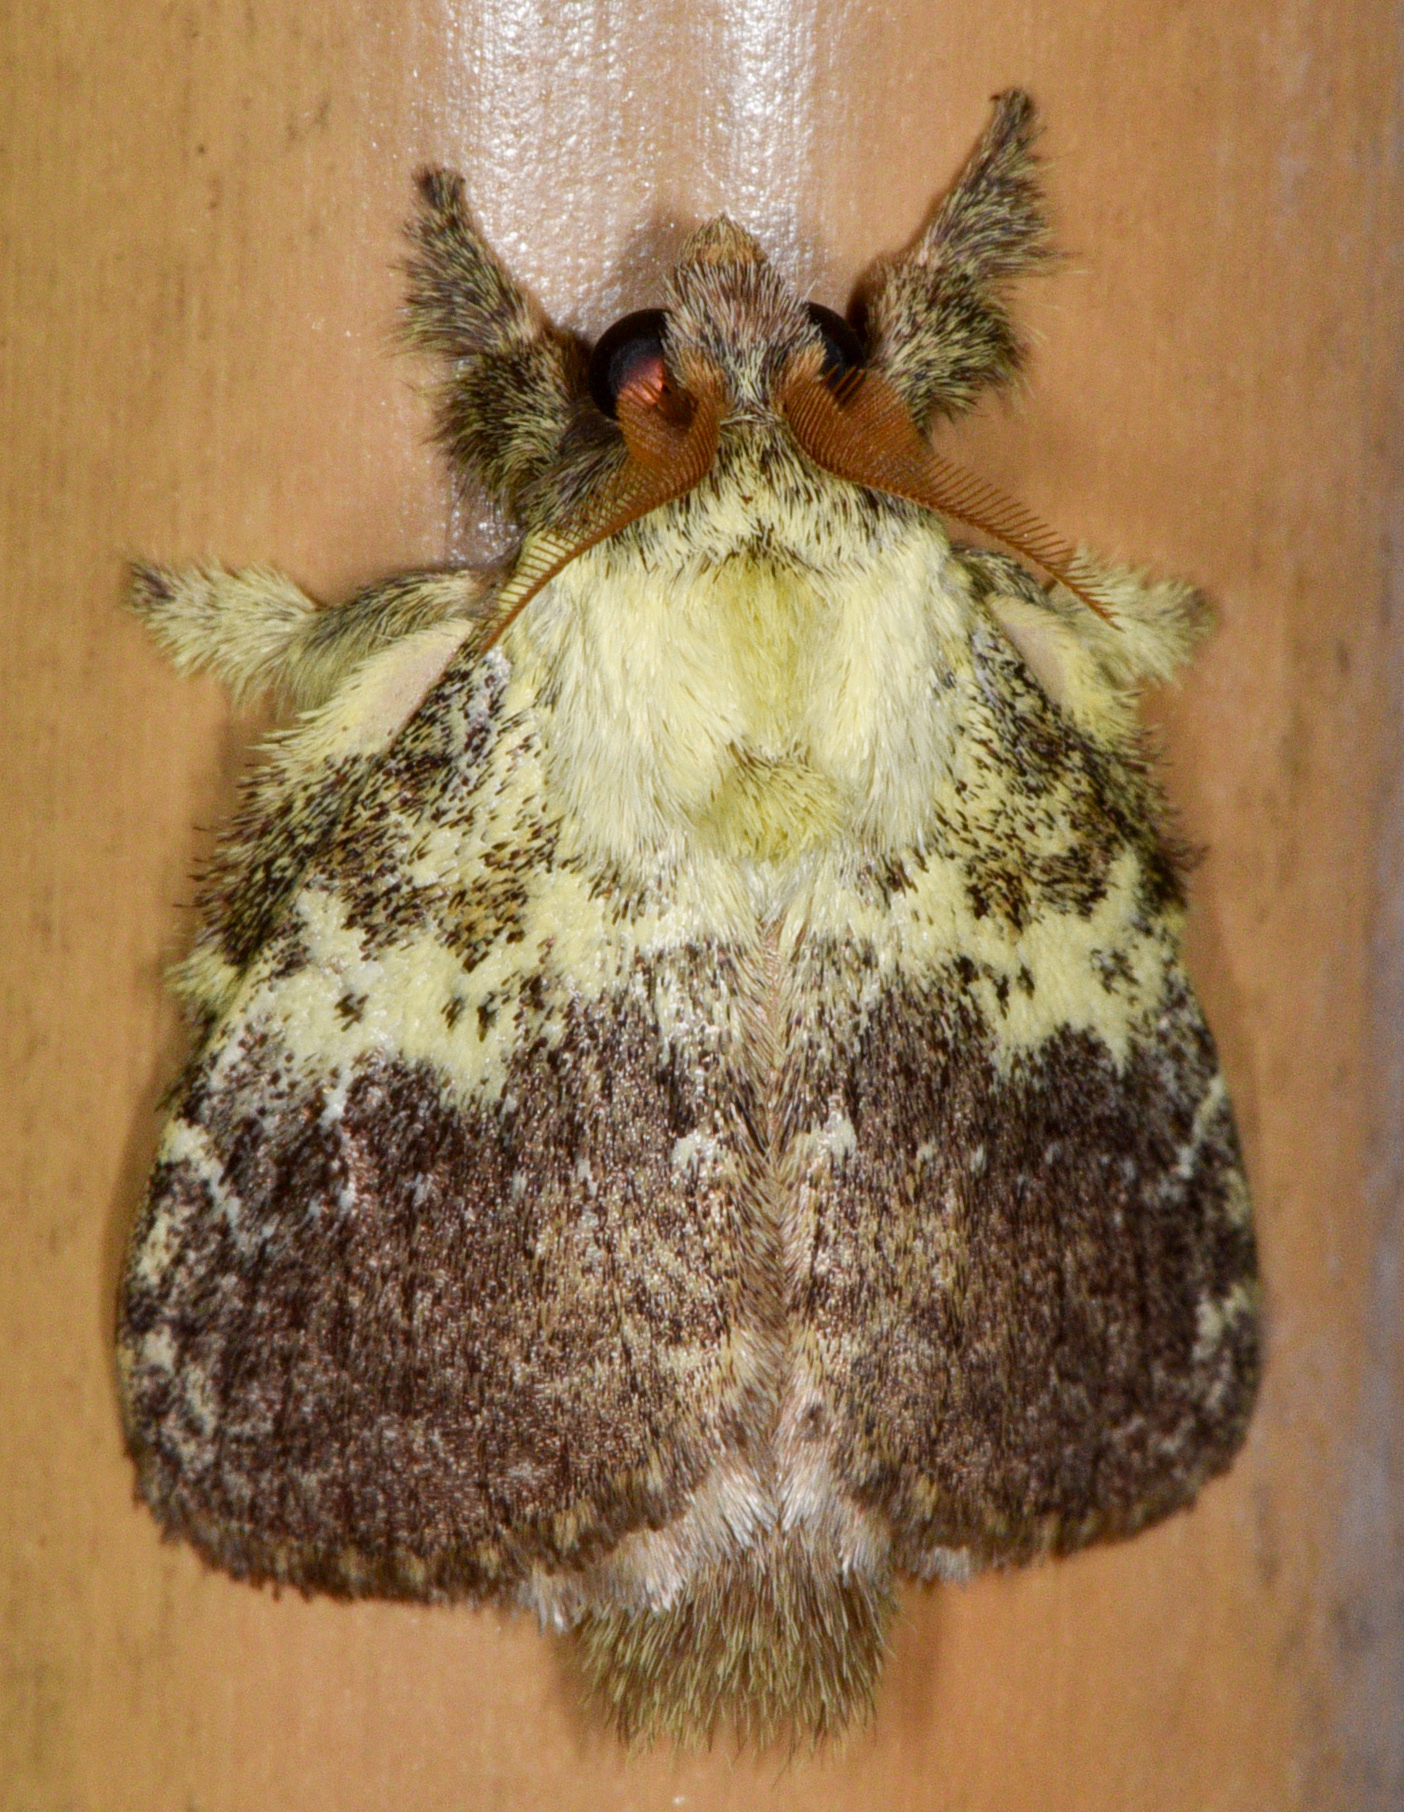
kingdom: Animalia
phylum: Arthropoda
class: Insecta
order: Lepidoptera
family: Lasiocampidae
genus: Euglyphis
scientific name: Euglyphis primola
